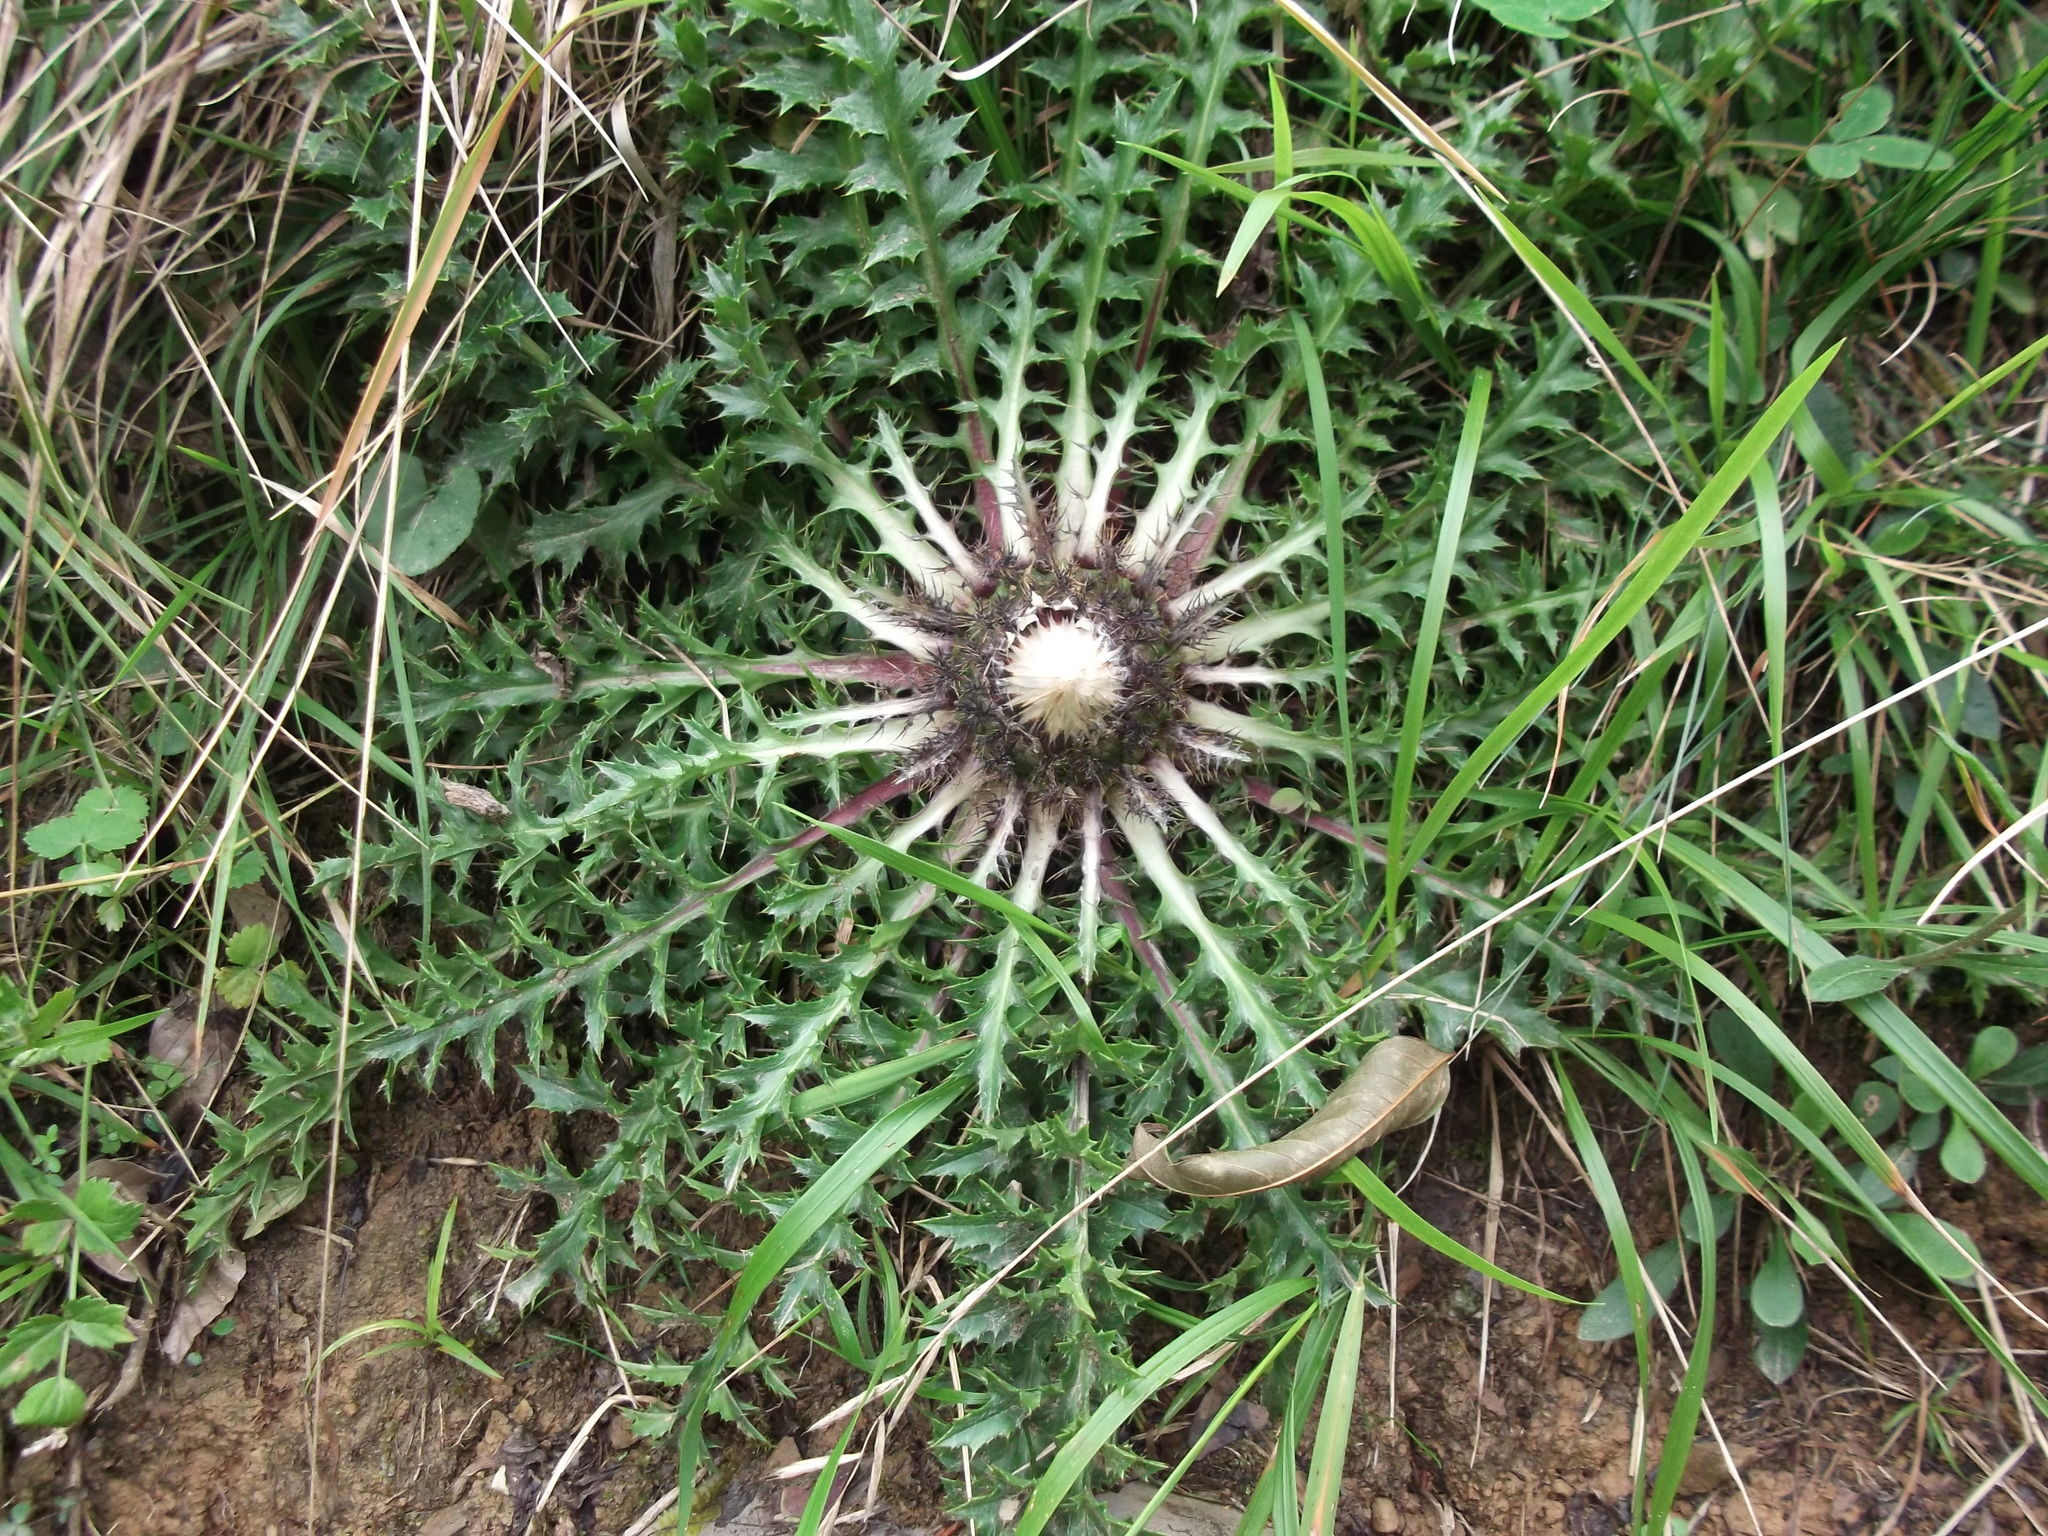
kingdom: Plantae
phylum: Tracheophyta
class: Magnoliopsida
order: Asterales
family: Asteraceae
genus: Carlina
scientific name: Carlina acaulis
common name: Stemless carline thistle
